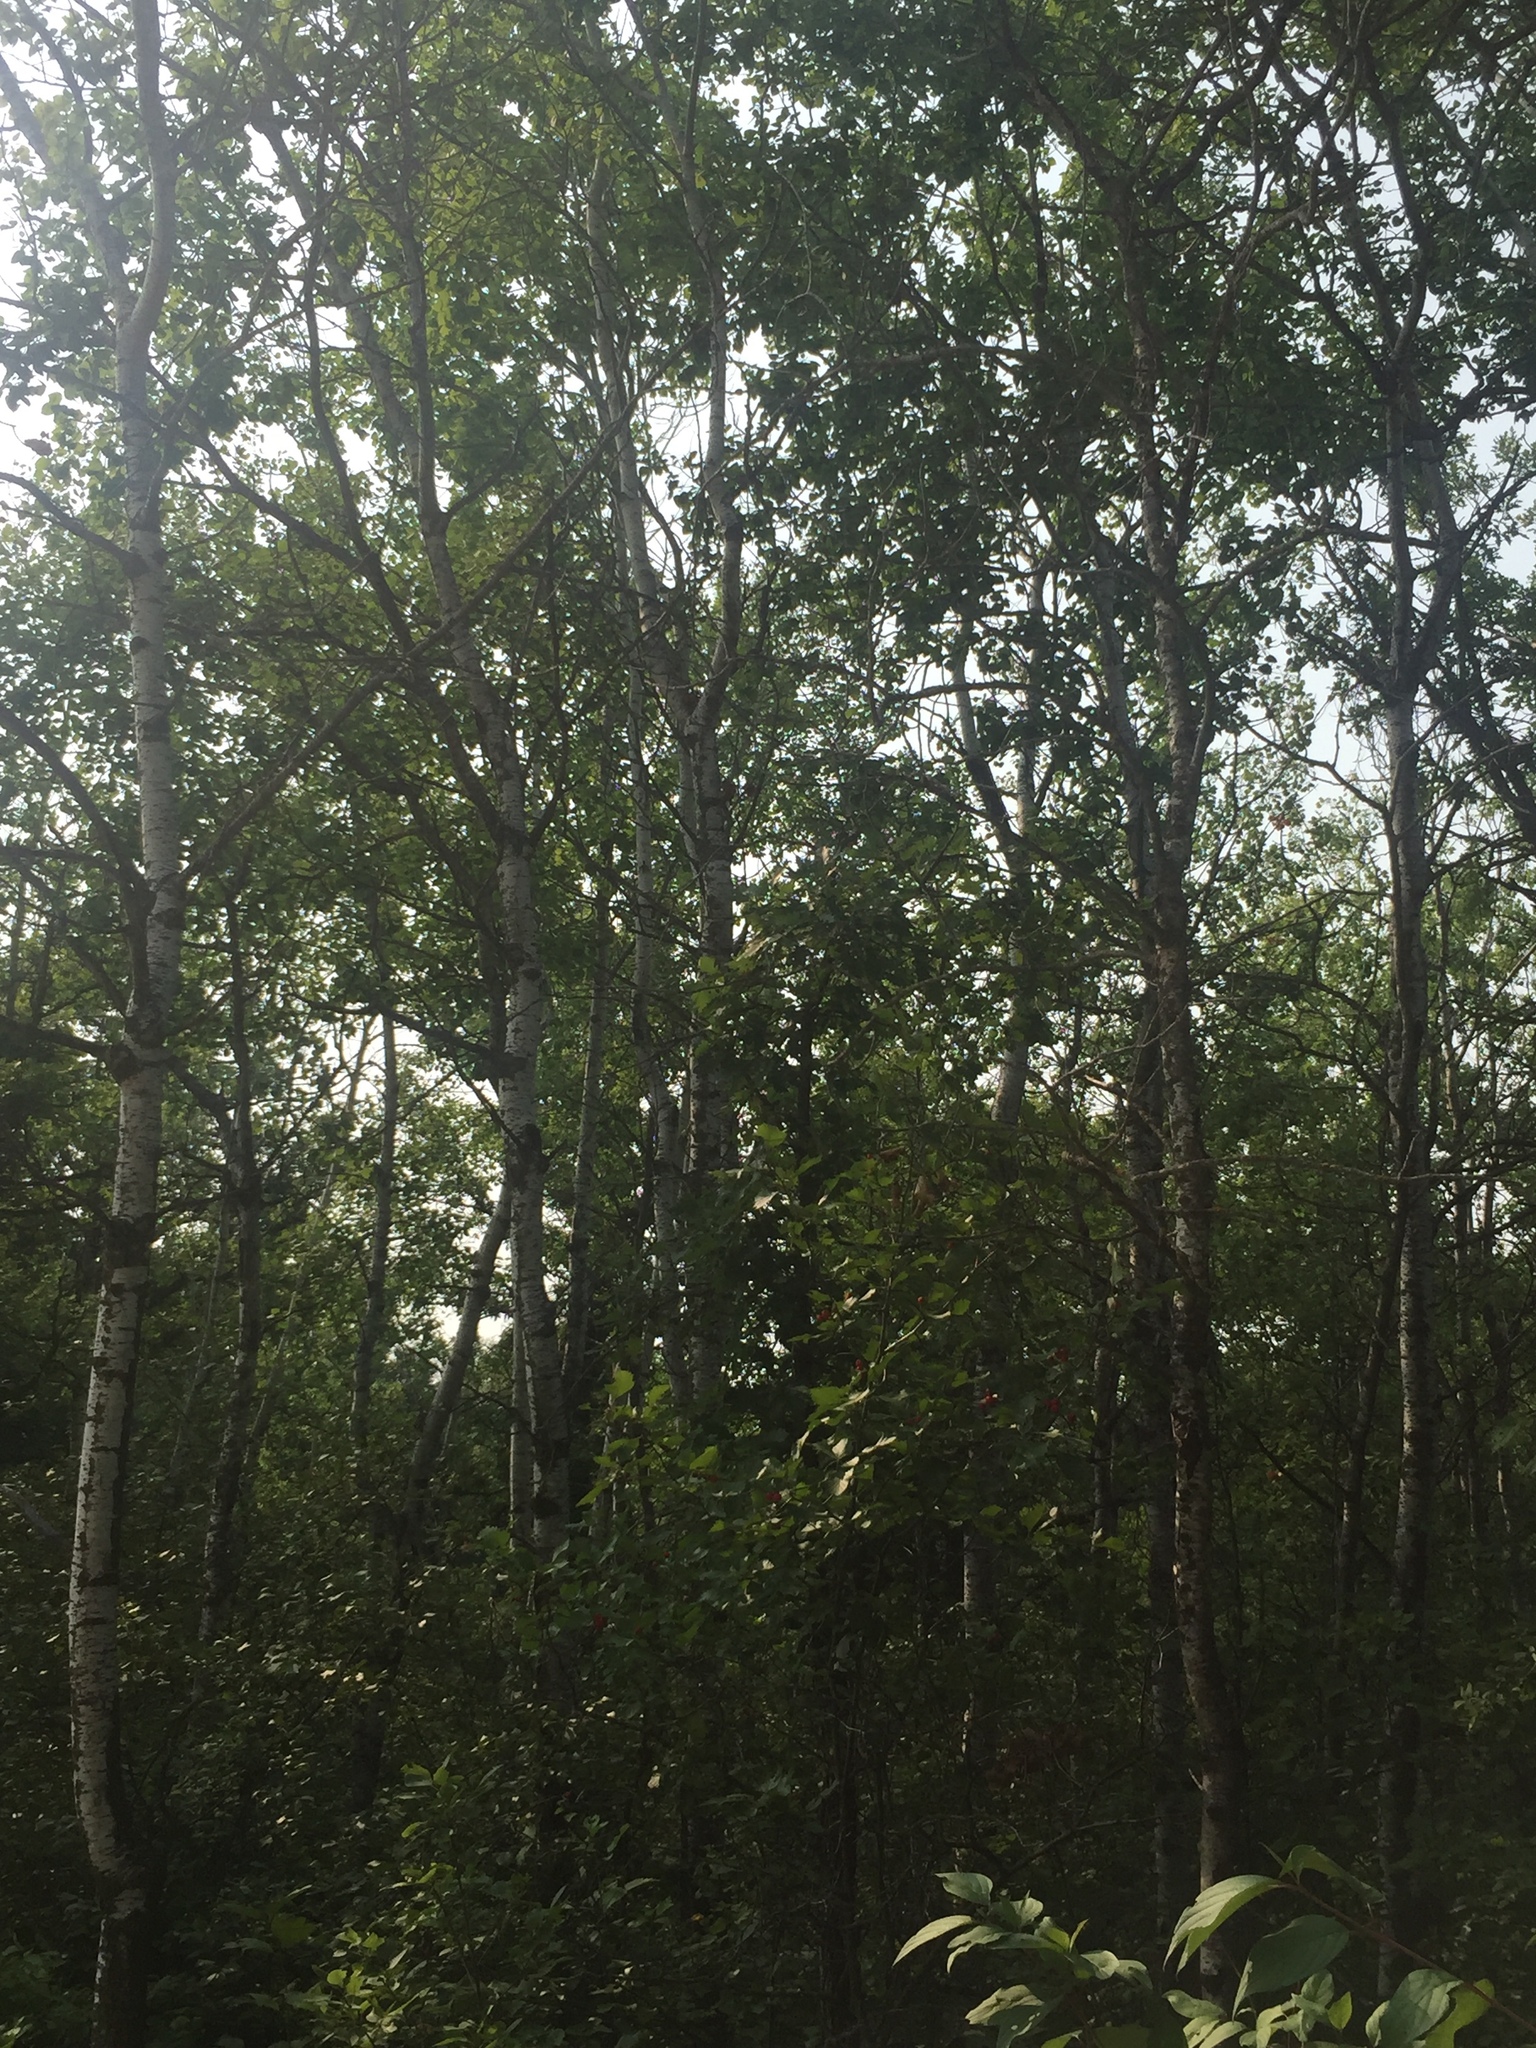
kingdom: Plantae
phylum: Tracheophyta
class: Magnoliopsida
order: Malpighiales
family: Salicaceae
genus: Populus
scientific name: Populus tremuloides
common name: Quaking aspen
